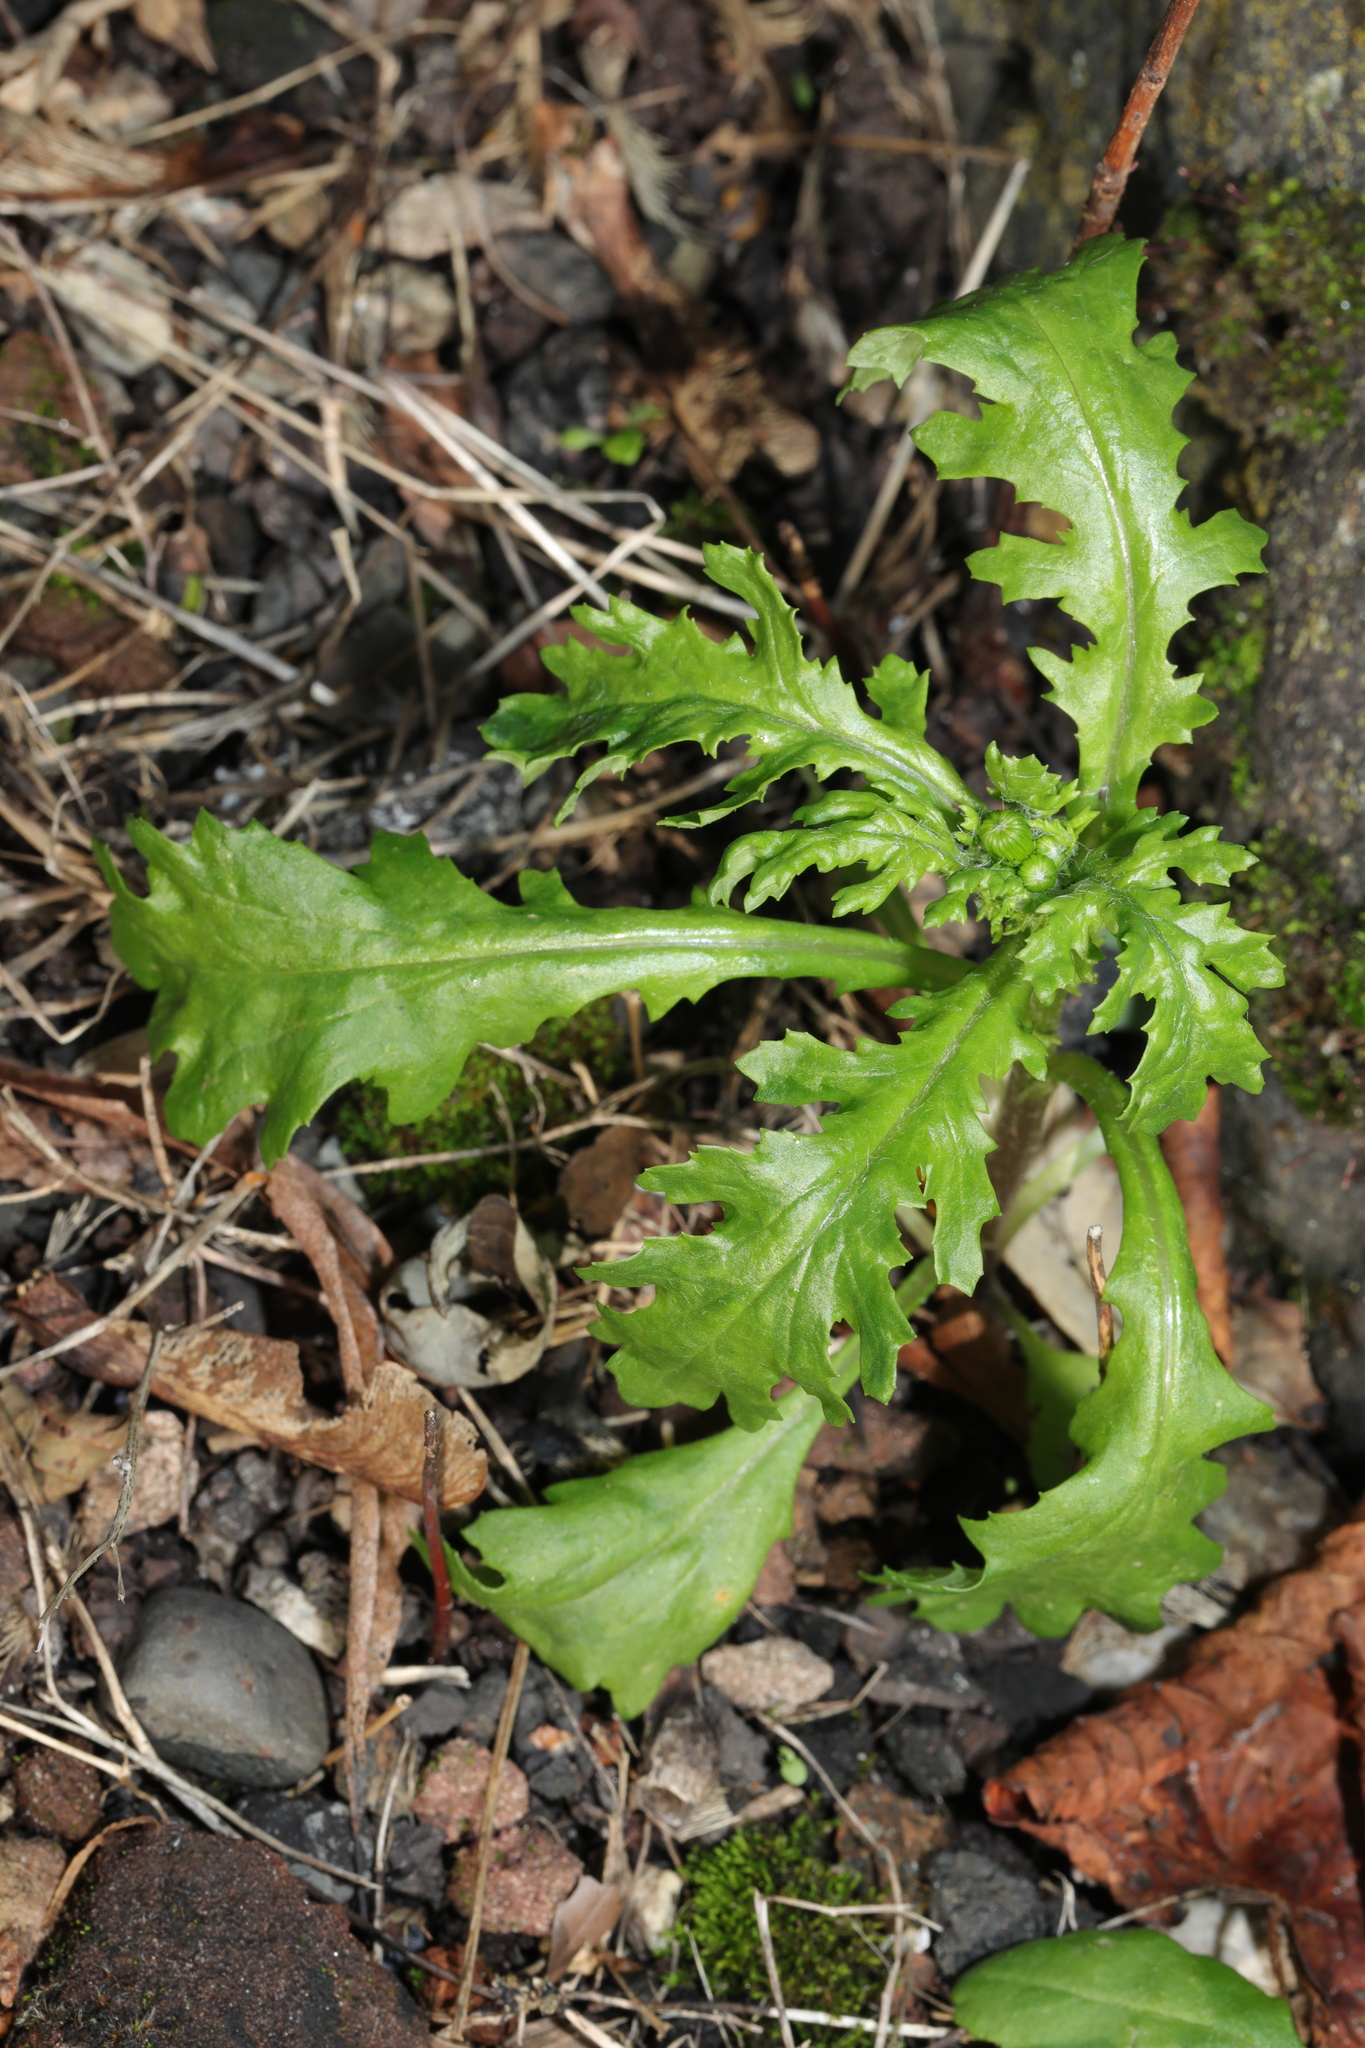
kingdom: Plantae
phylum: Tracheophyta
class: Magnoliopsida
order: Asterales
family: Asteraceae
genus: Senecio
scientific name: Senecio vulgaris
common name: Old-man-in-the-spring
